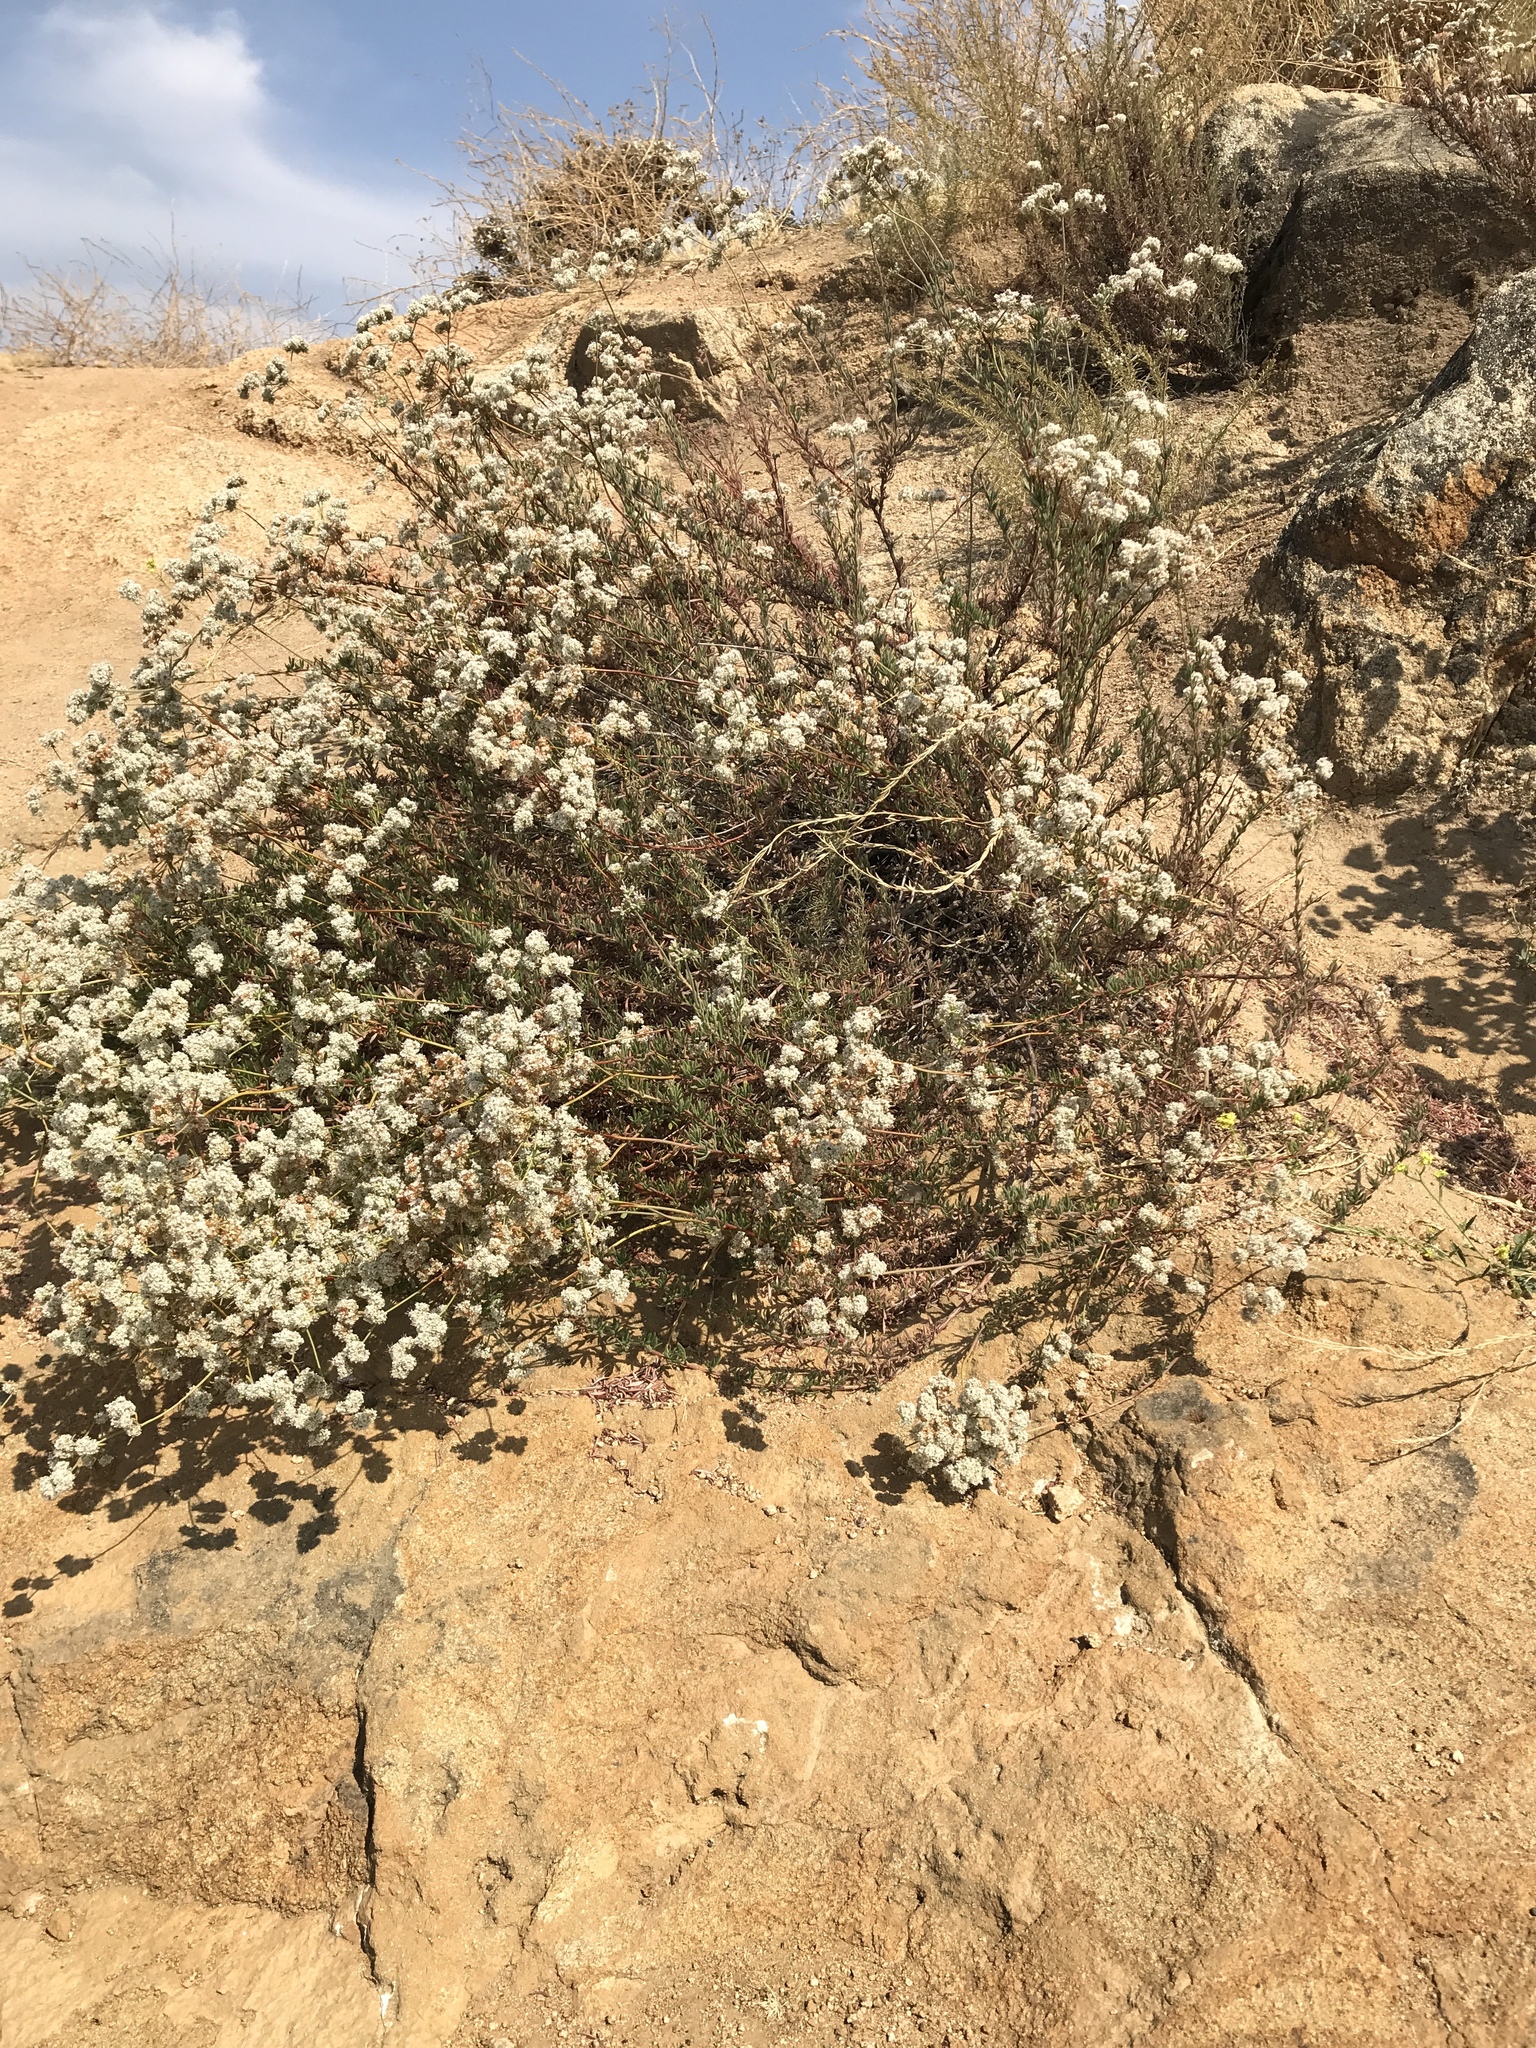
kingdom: Plantae
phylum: Tracheophyta
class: Magnoliopsida
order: Caryophyllales
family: Polygonaceae
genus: Eriogonum
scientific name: Eriogonum fasciculatum
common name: California wild buckwheat
